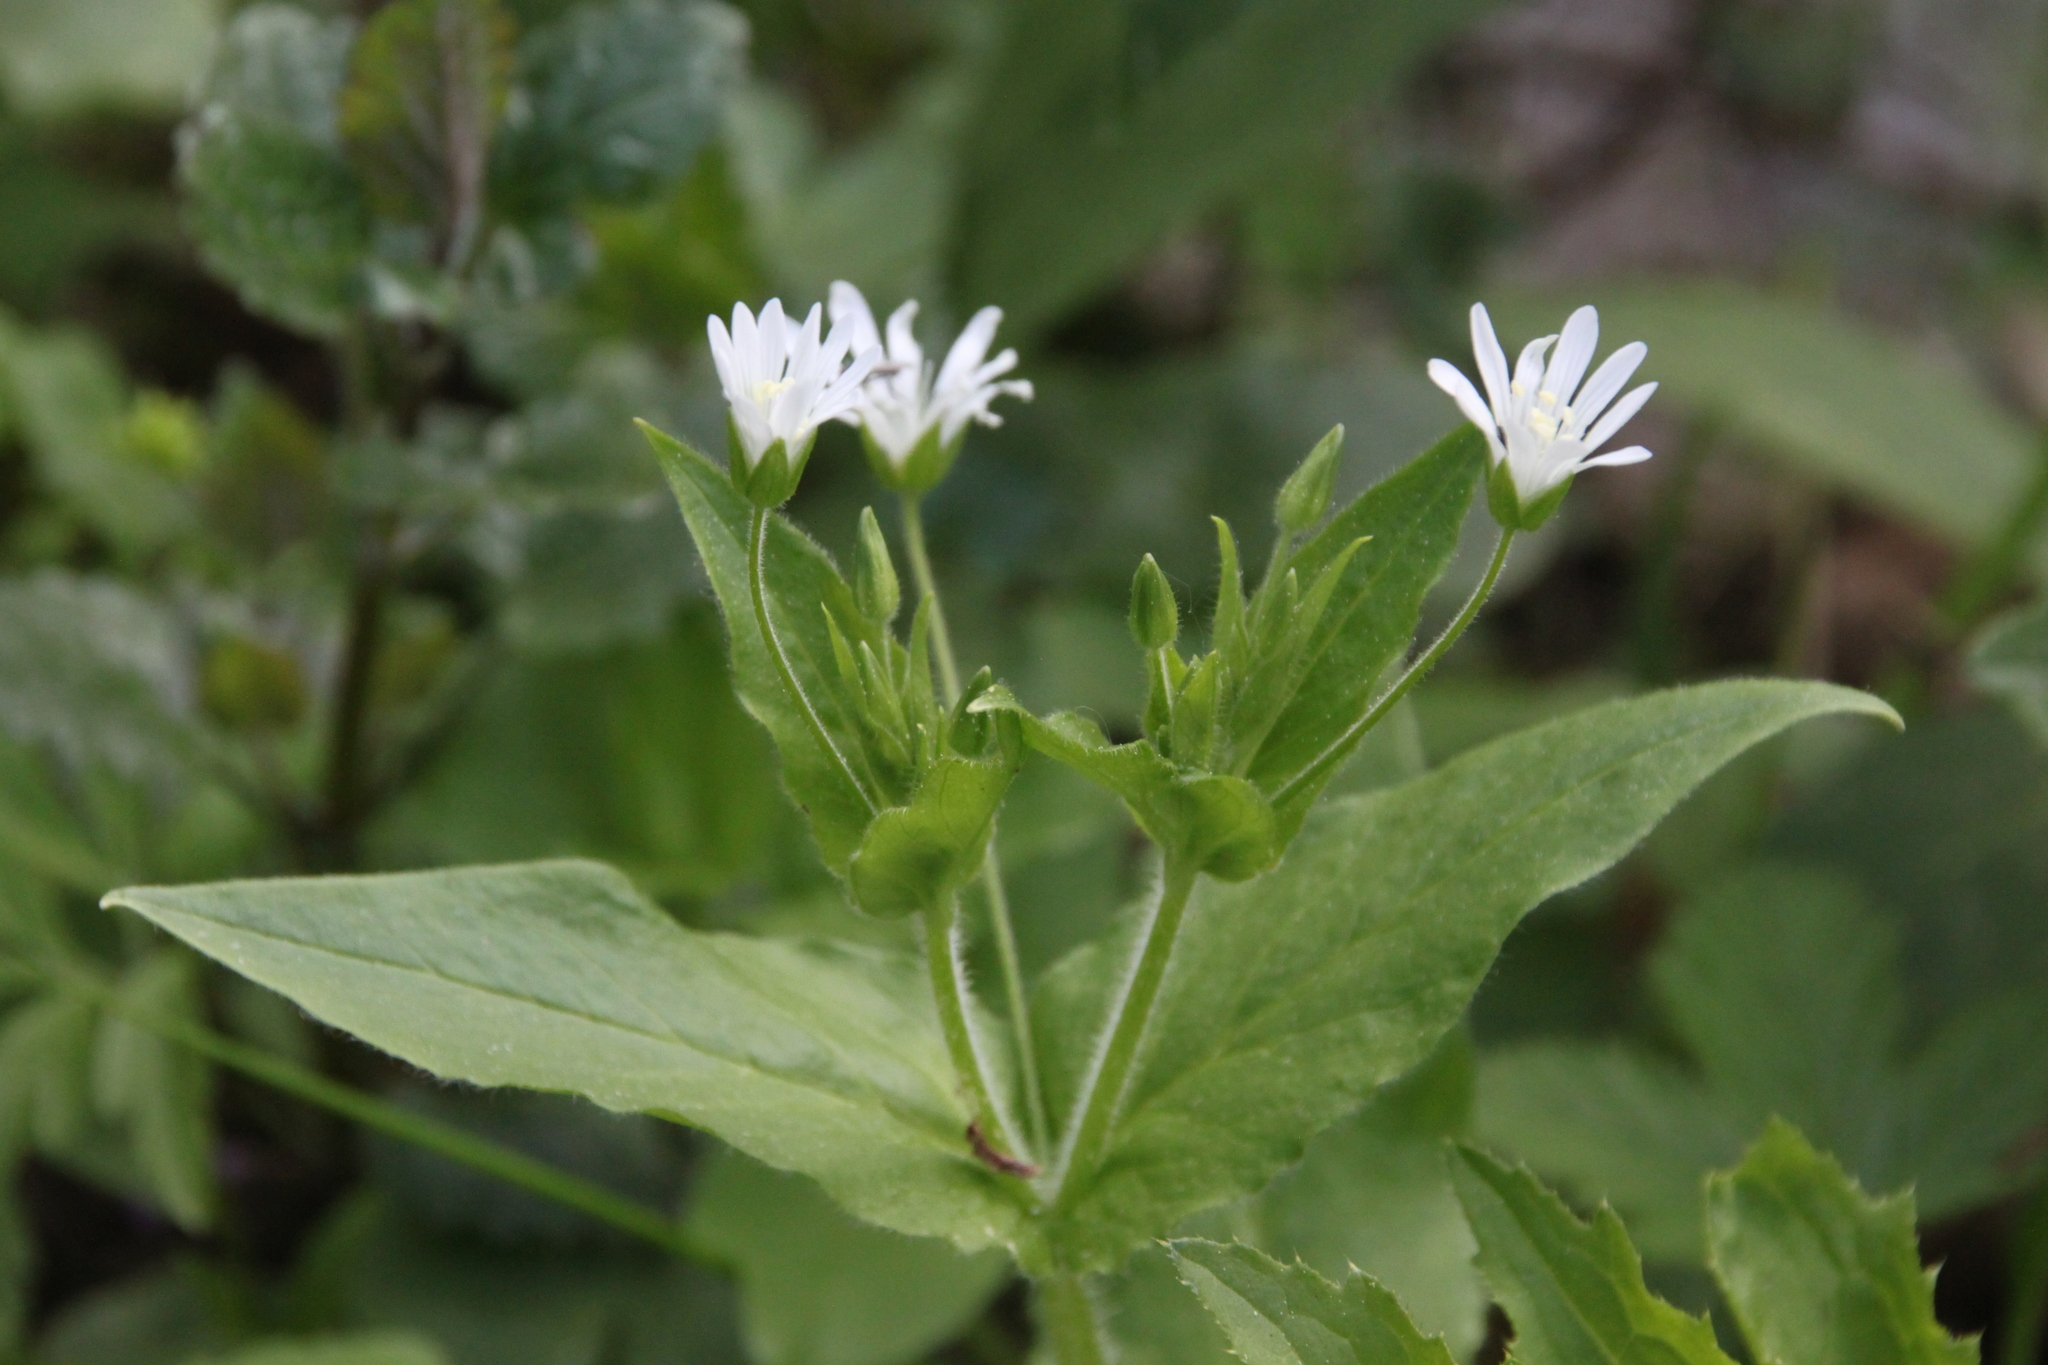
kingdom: Plantae
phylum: Tracheophyta
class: Magnoliopsida
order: Caryophyllales
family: Caryophyllaceae
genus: Stellaria
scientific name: Stellaria nemorum
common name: Wood stitchwort
